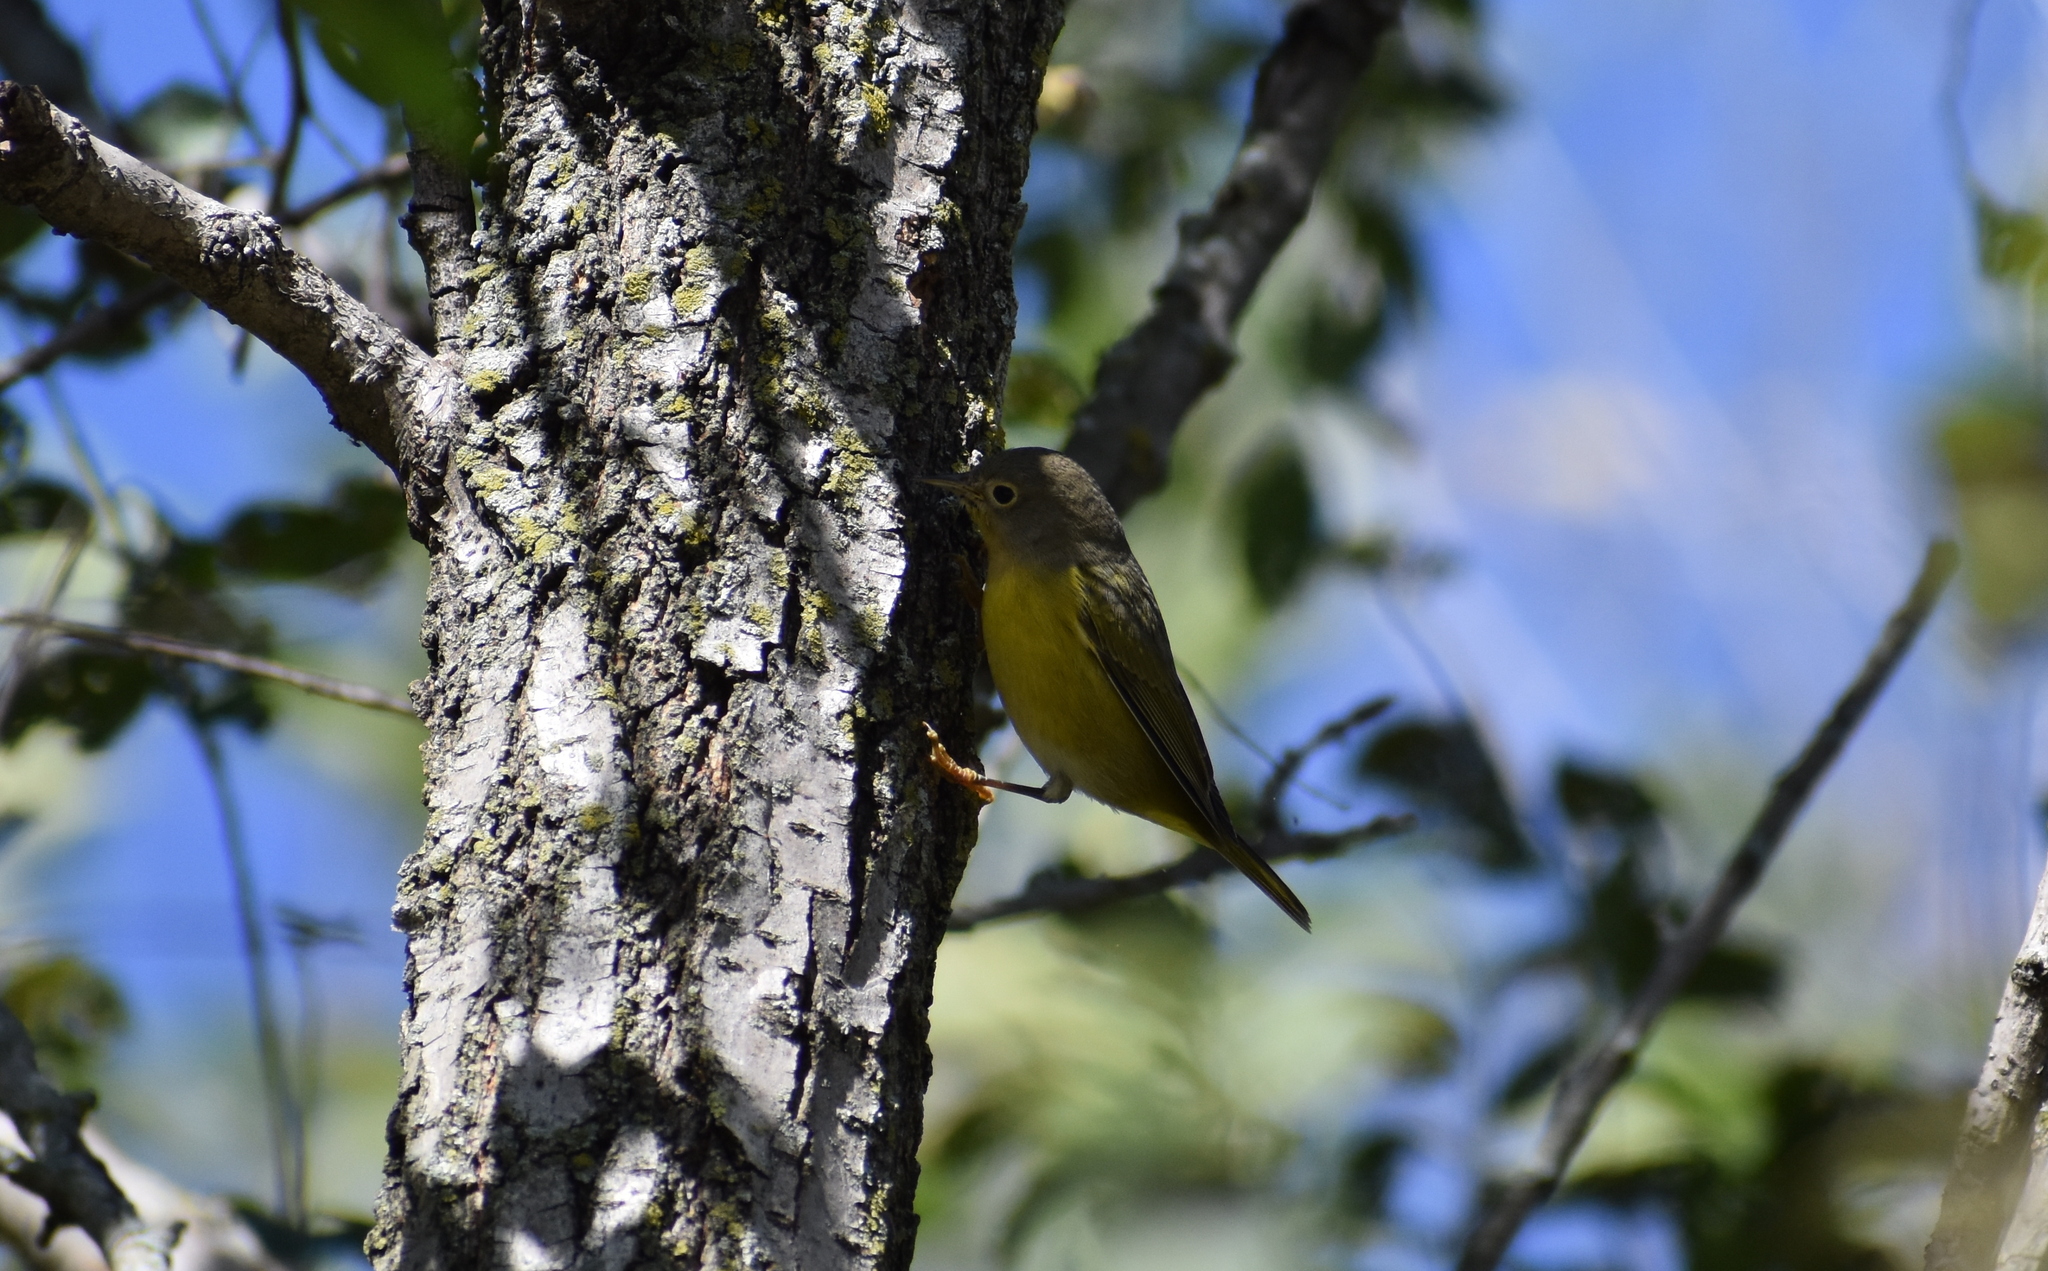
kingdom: Animalia
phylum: Chordata
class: Aves
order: Passeriformes
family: Parulidae
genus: Leiothlypis
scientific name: Leiothlypis ruficapilla
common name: Nashville warbler
